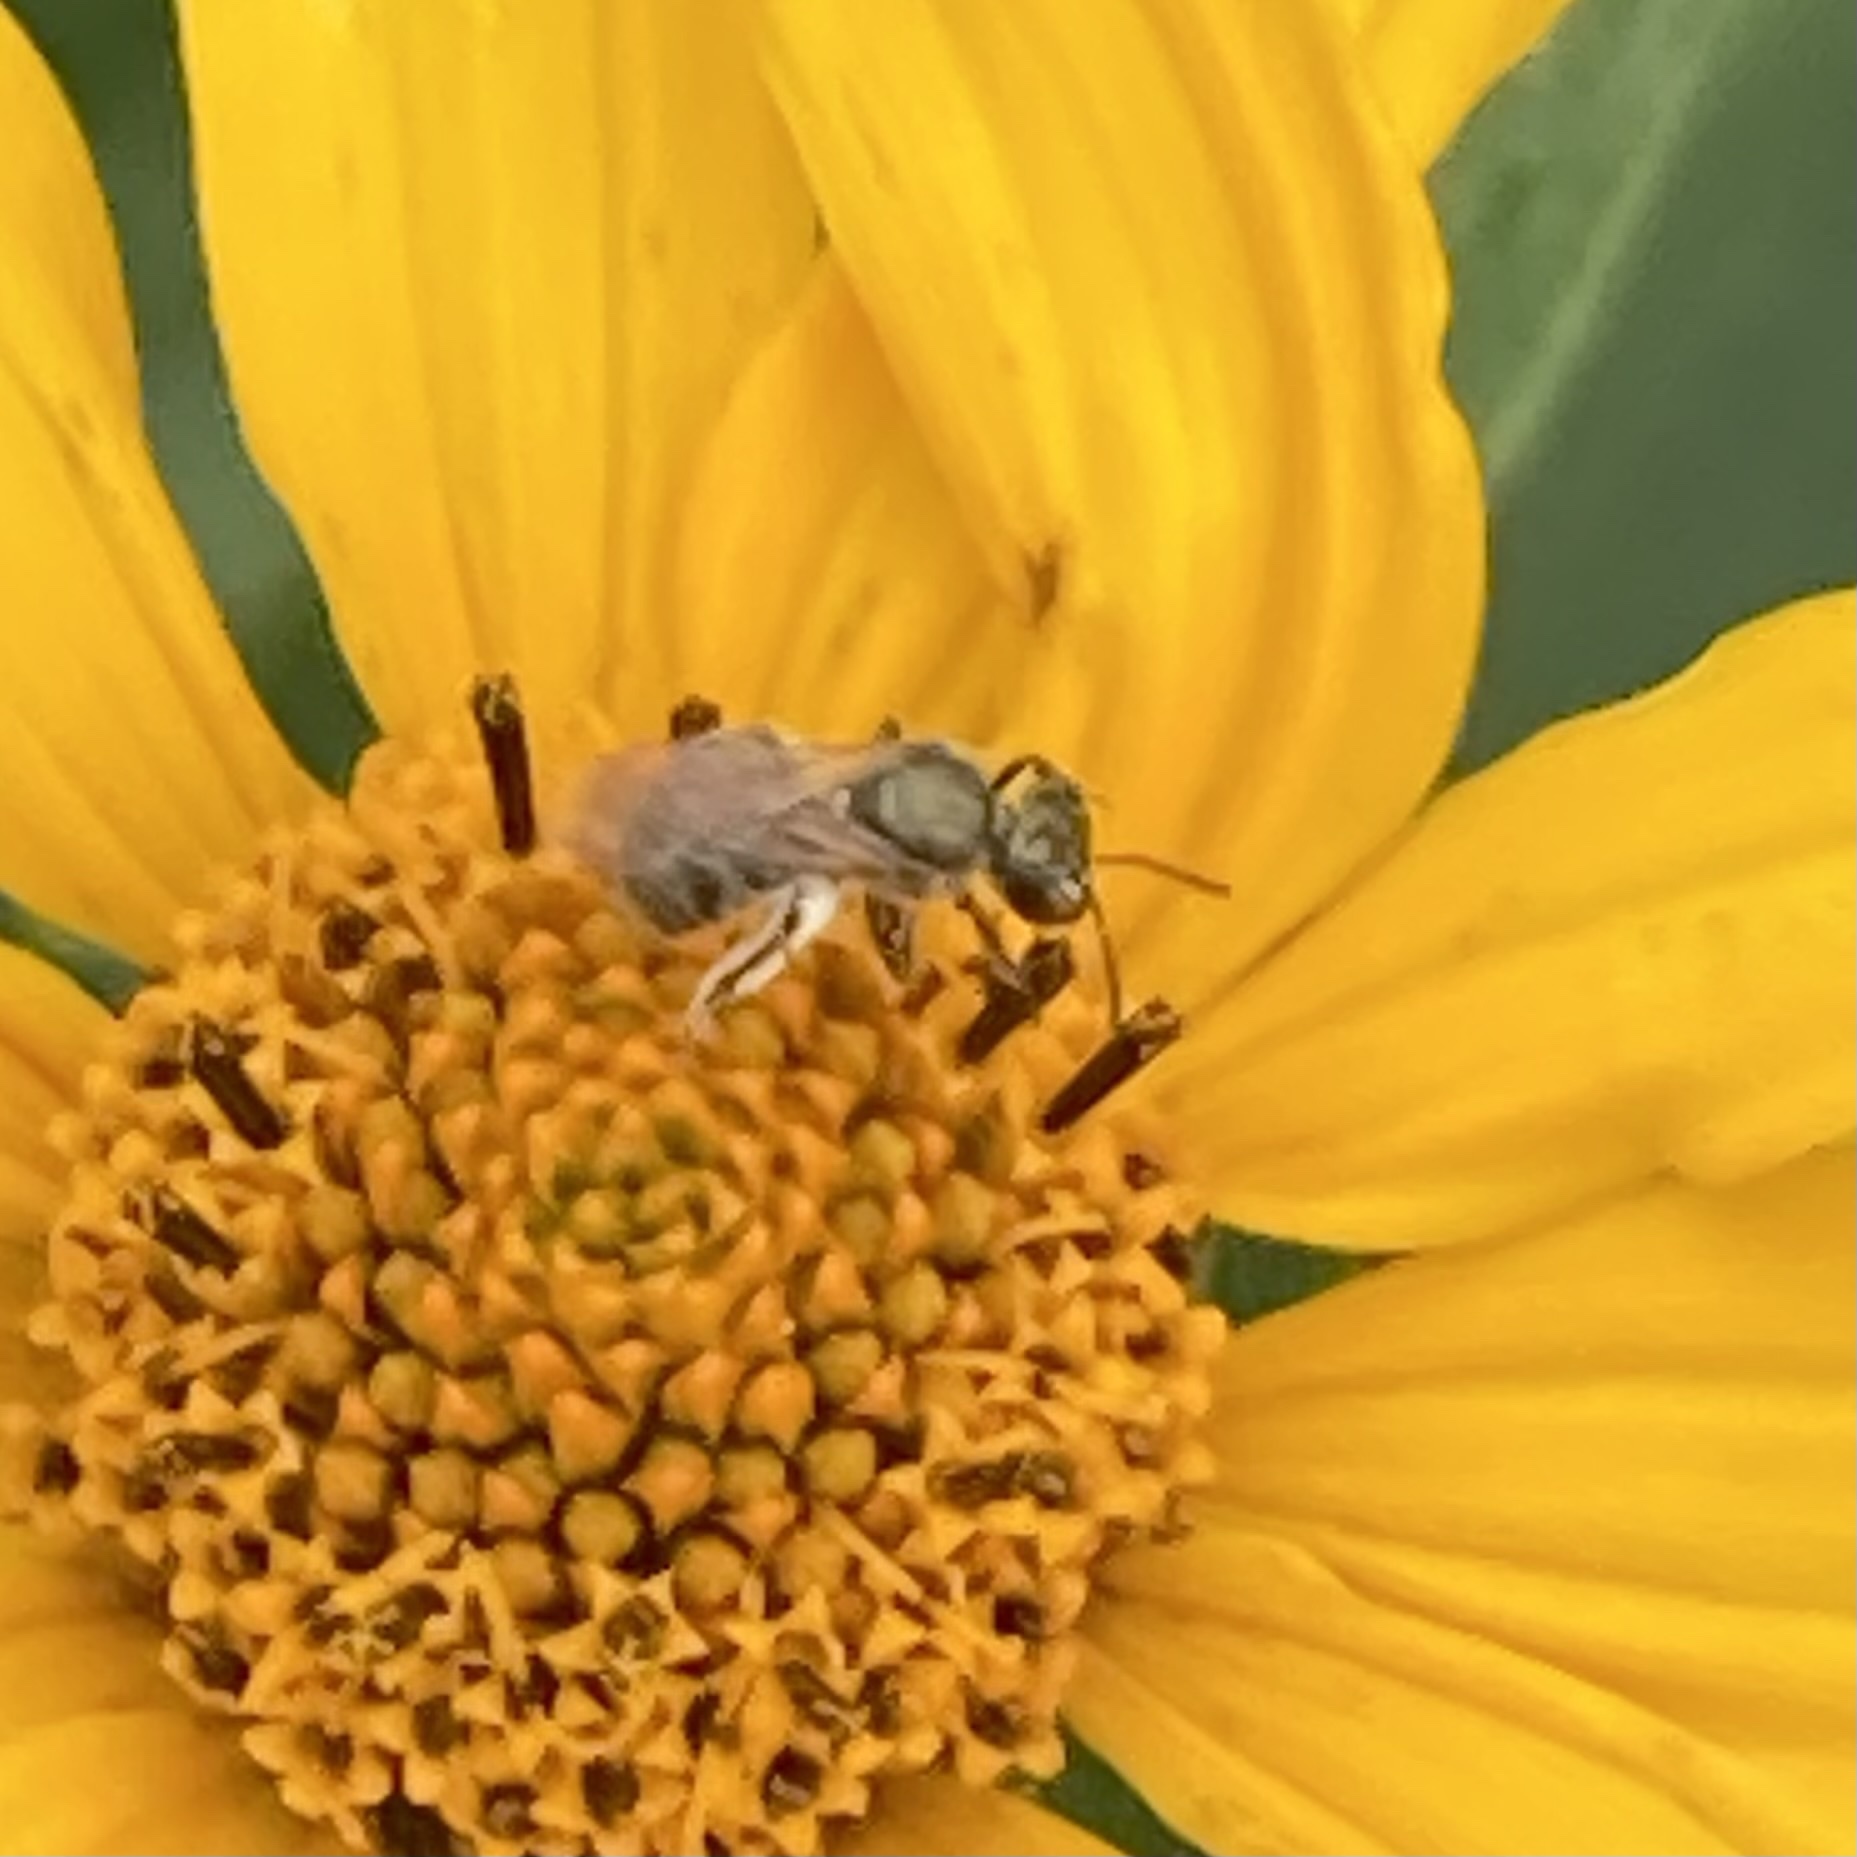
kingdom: Animalia
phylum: Arthropoda
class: Insecta
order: Hymenoptera
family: Halictidae
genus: Dialictus
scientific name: Dialictus
